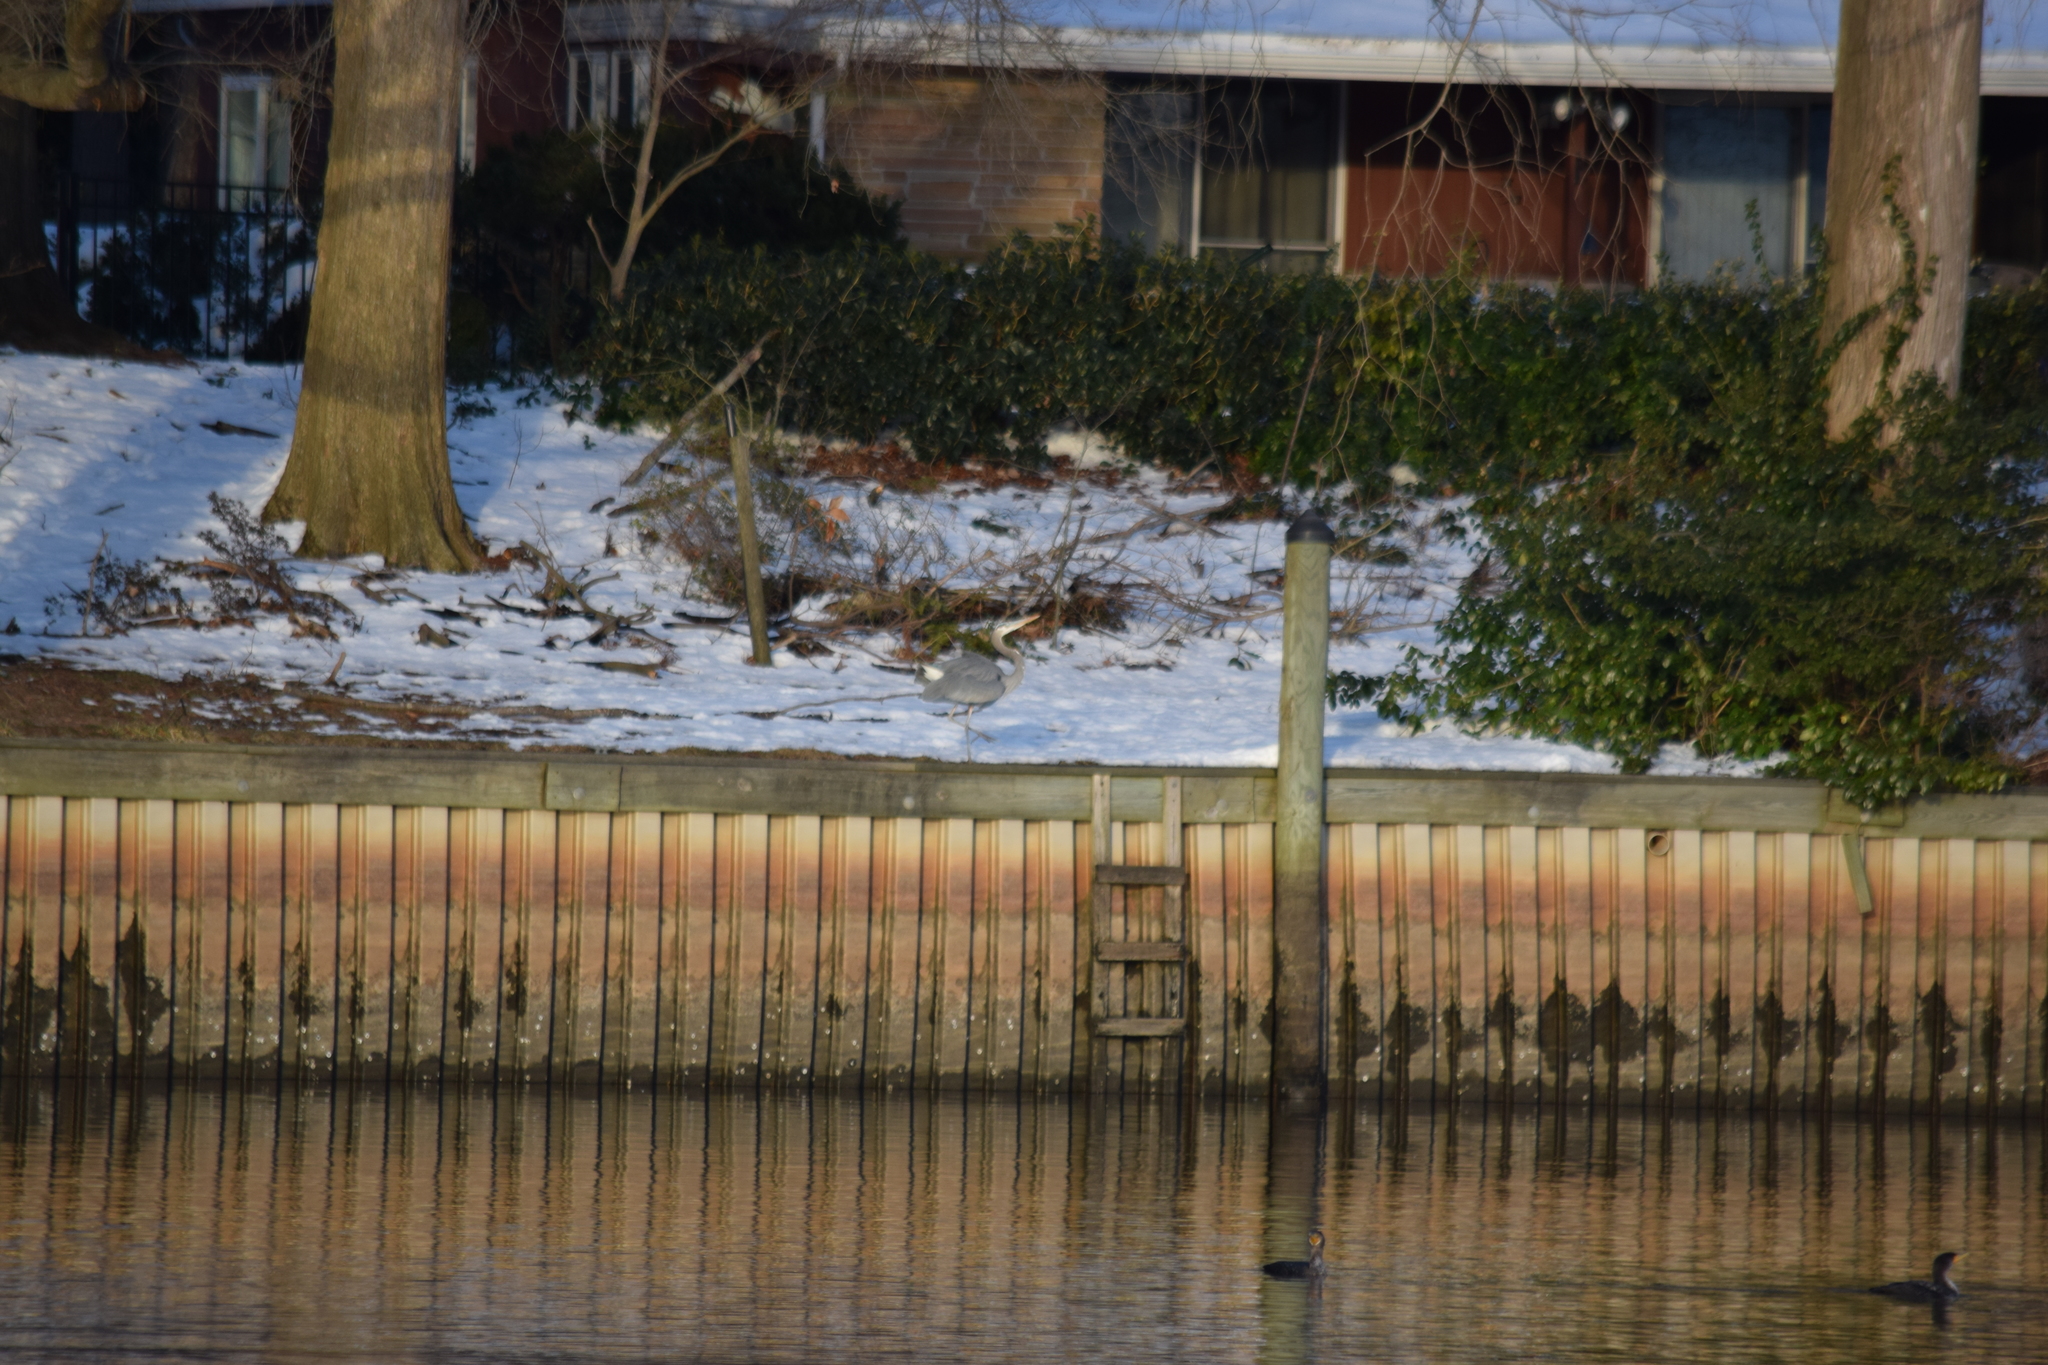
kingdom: Animalia
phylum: Chordata
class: Aves
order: Pelecaniformes
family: Ardeidae
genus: Ardea
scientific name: Ardea herodias
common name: Great blue heron
